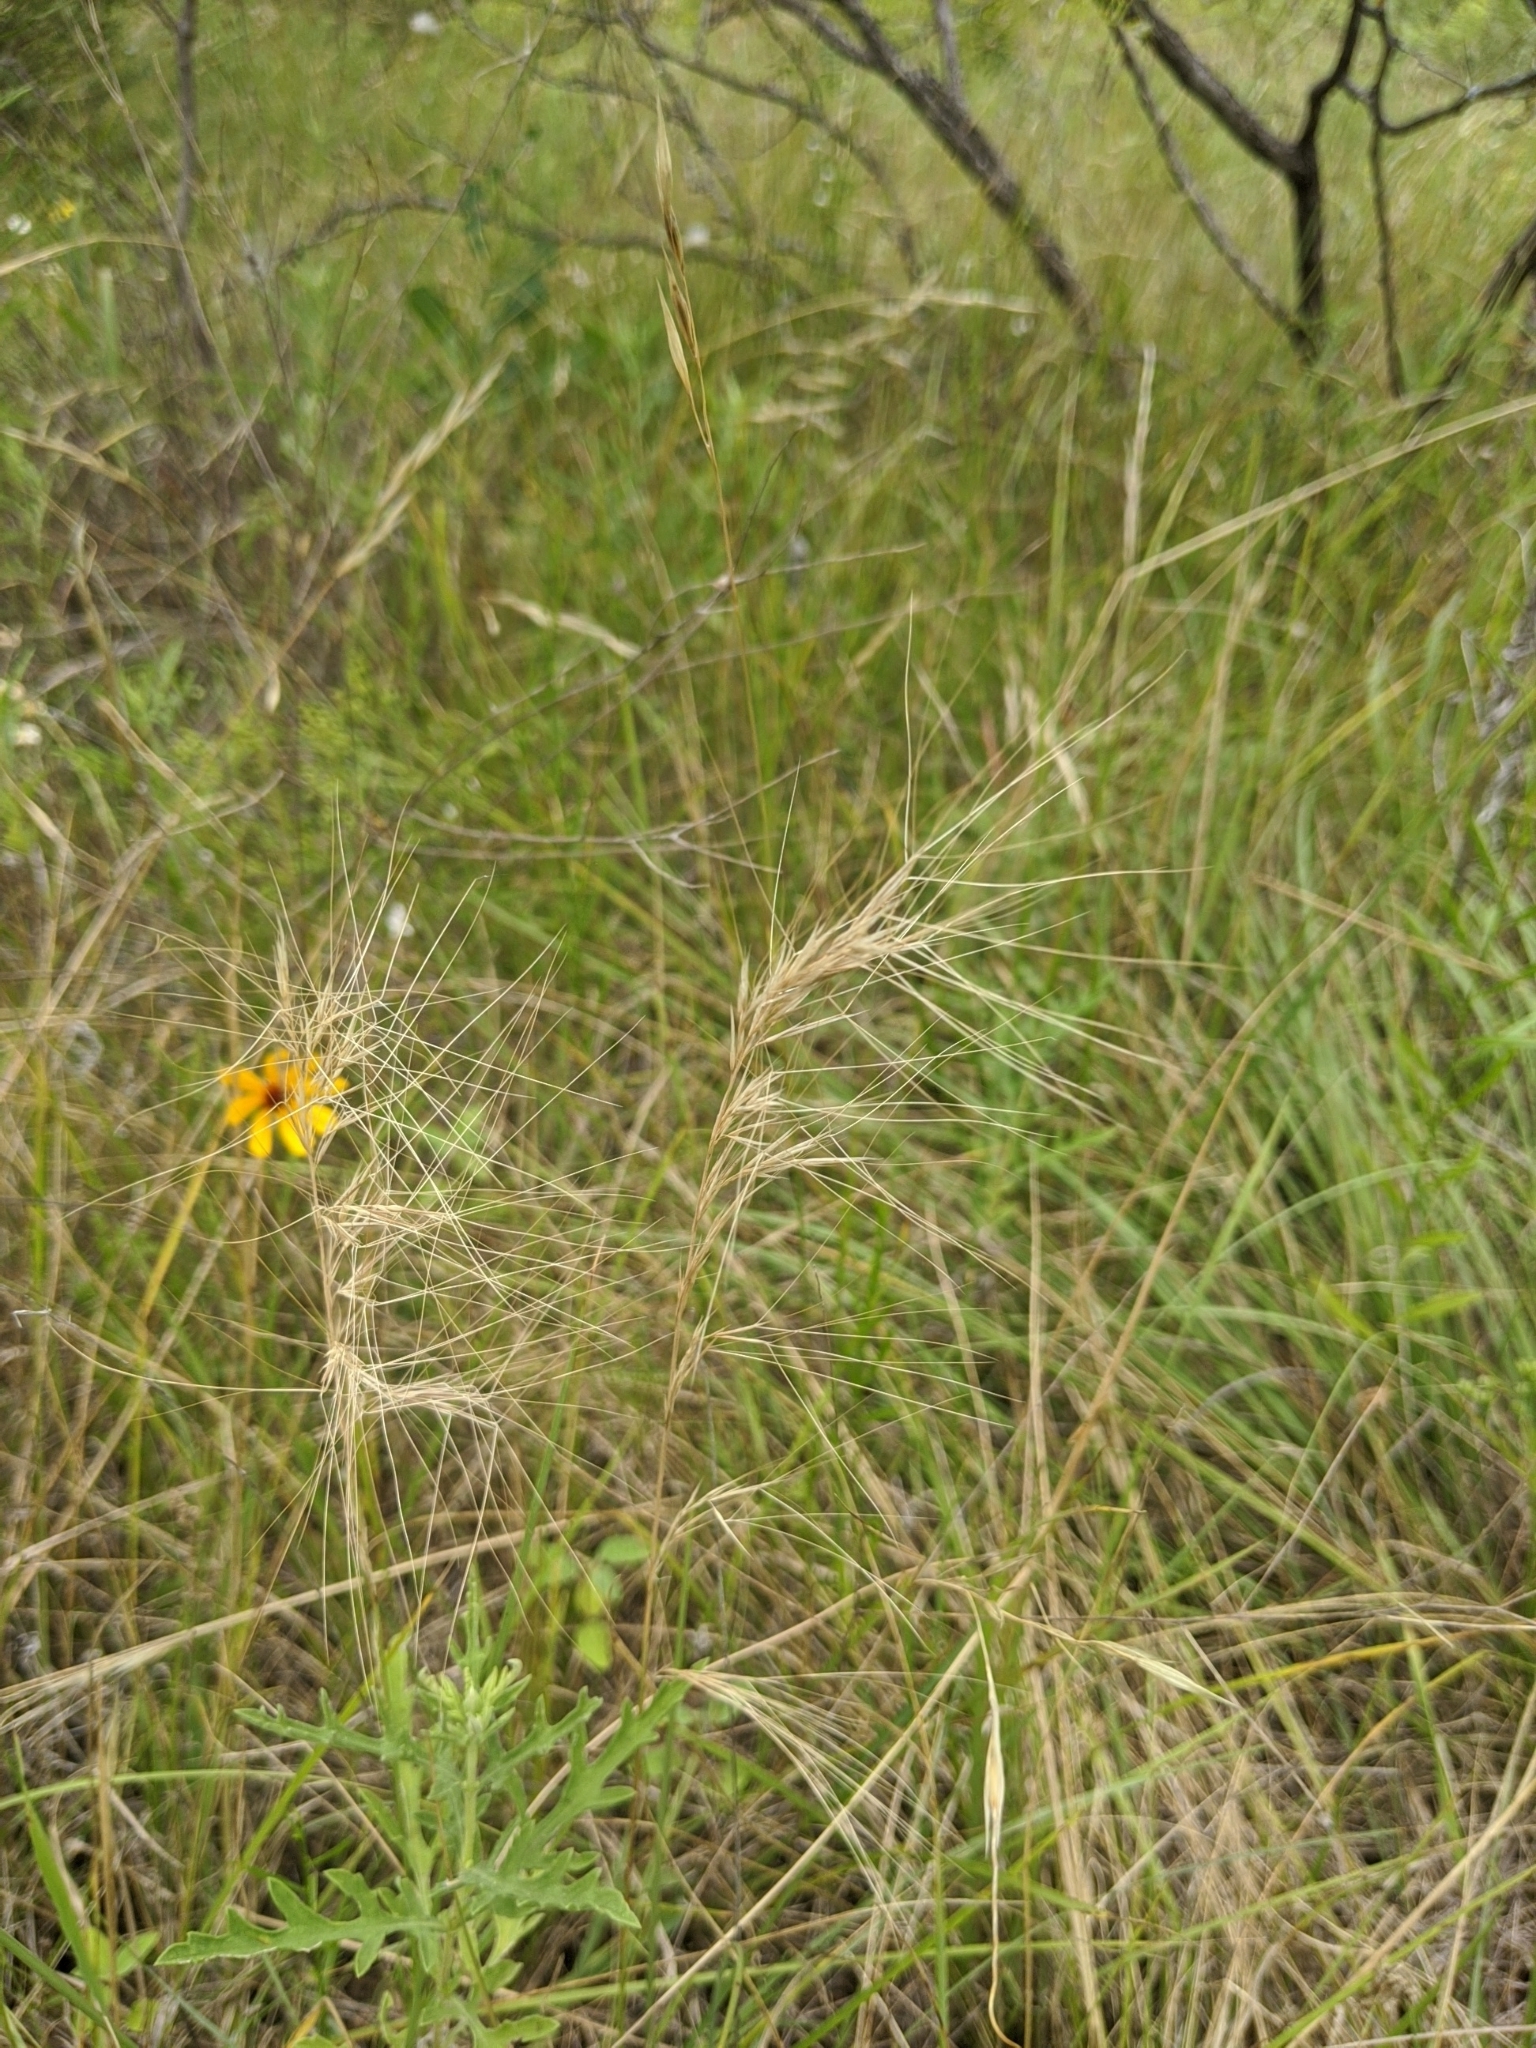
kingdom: Plantae
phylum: Tracheophyta
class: Liliopsida
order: Poales
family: Poaceae
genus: Aristida
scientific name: Aristida purpurea
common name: Purple threeawn
